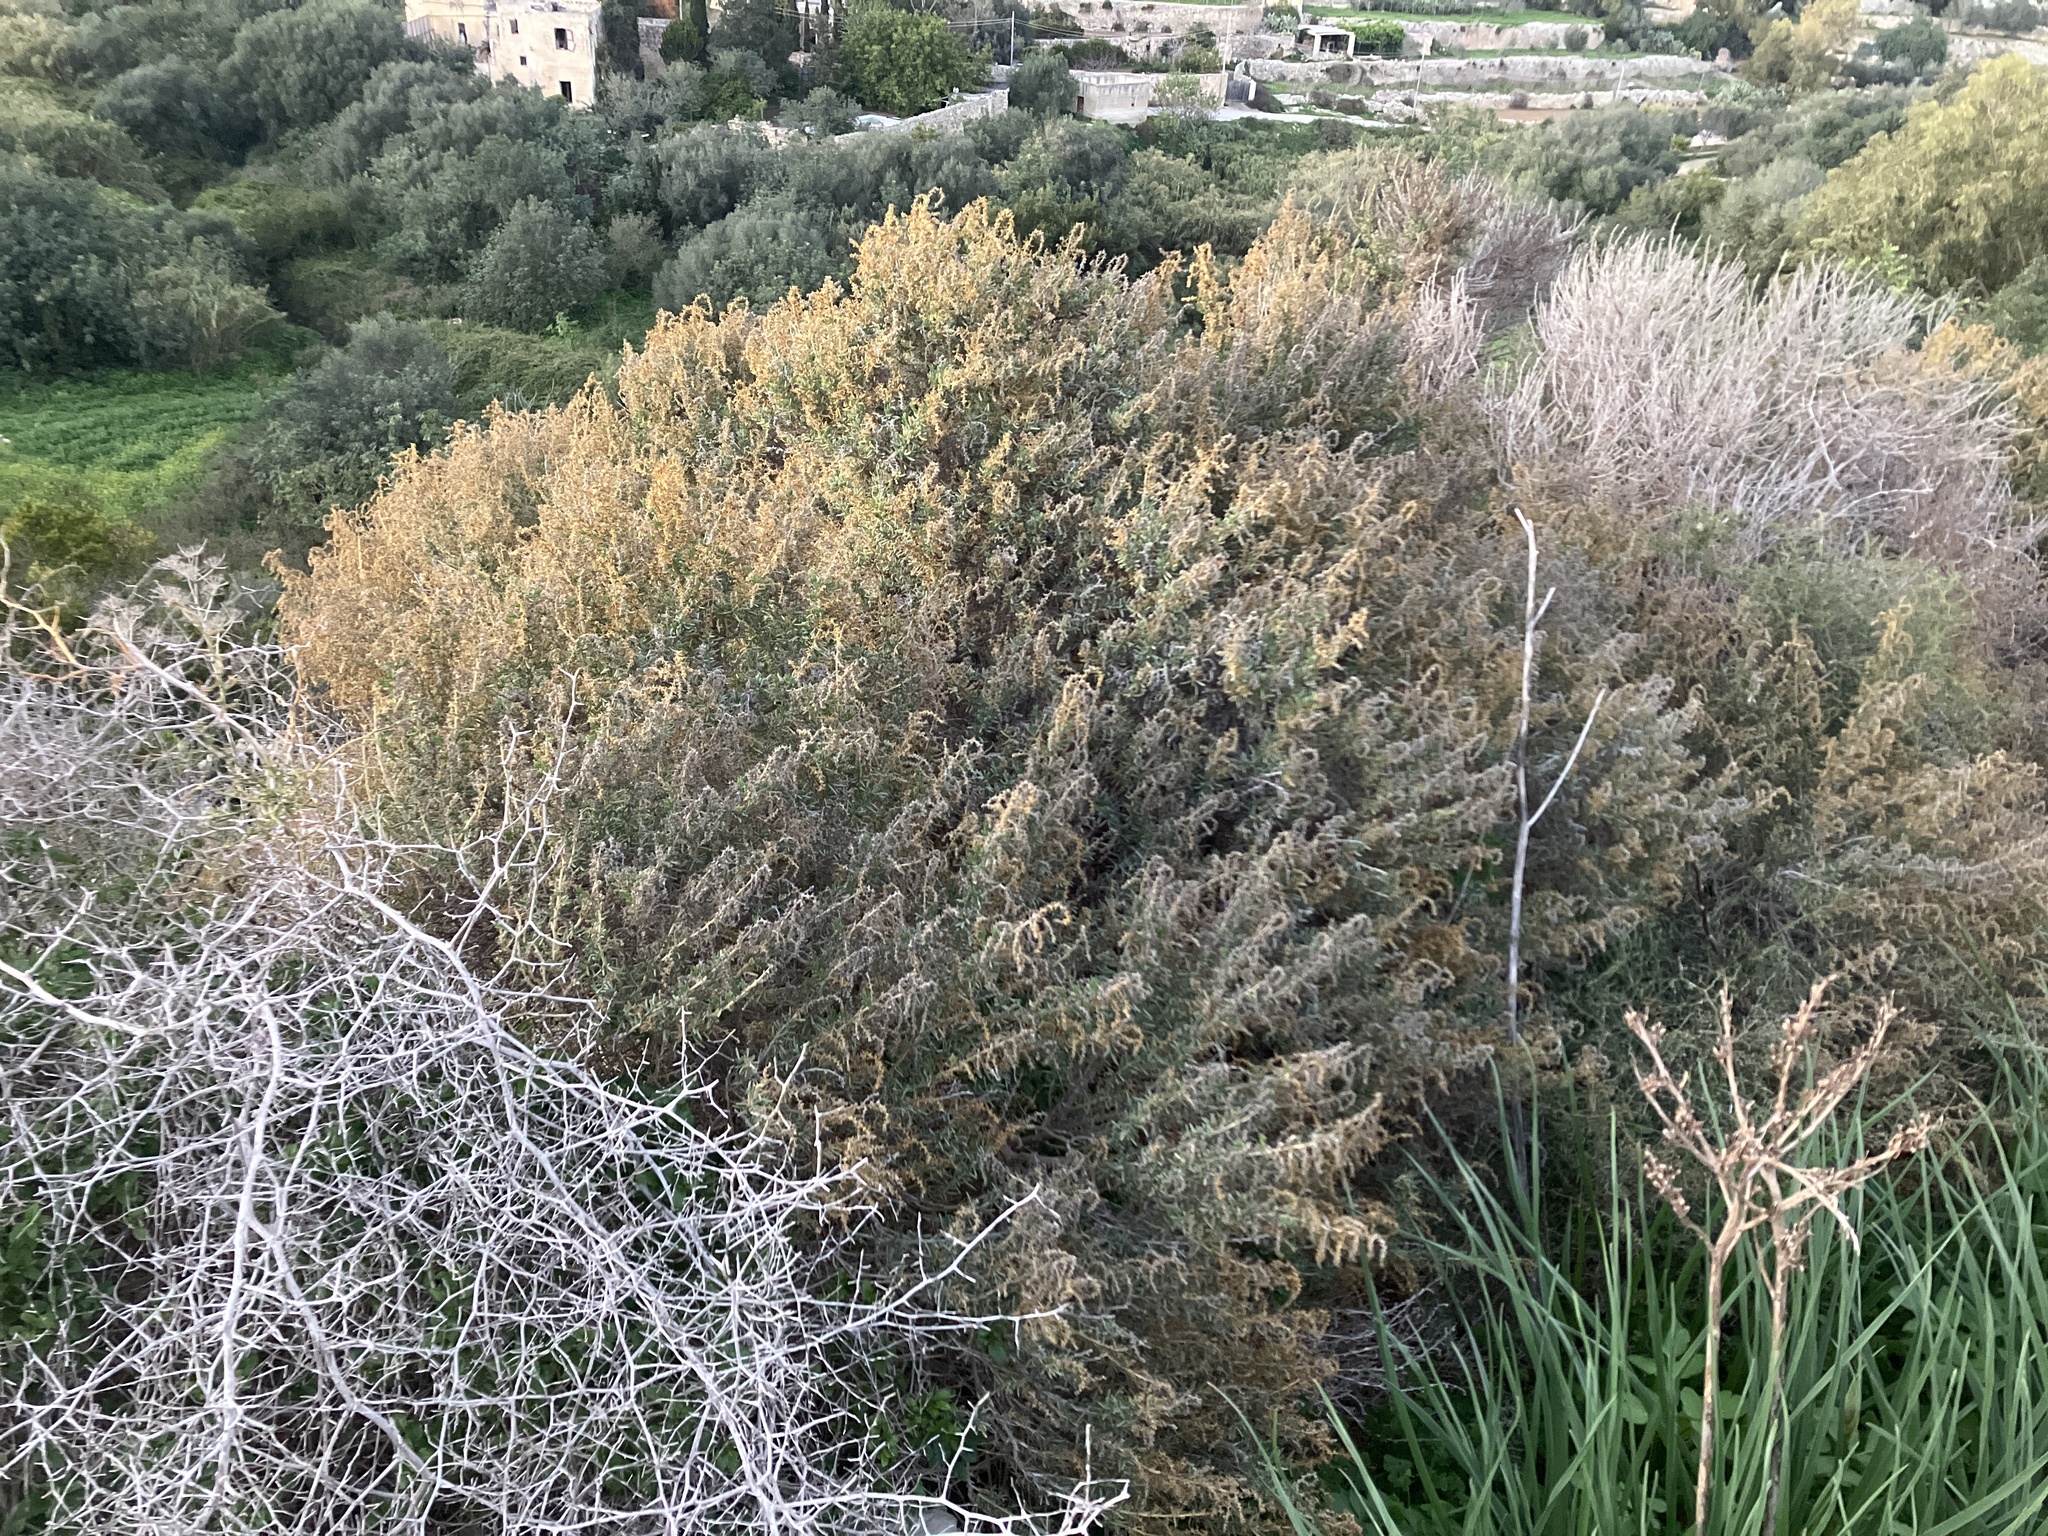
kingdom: Plantae
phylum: Tracheophyta
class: Magnoliopsida
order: Caryophyllales
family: Amaranthaceae
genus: Salsola
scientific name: Salsola melitensis
